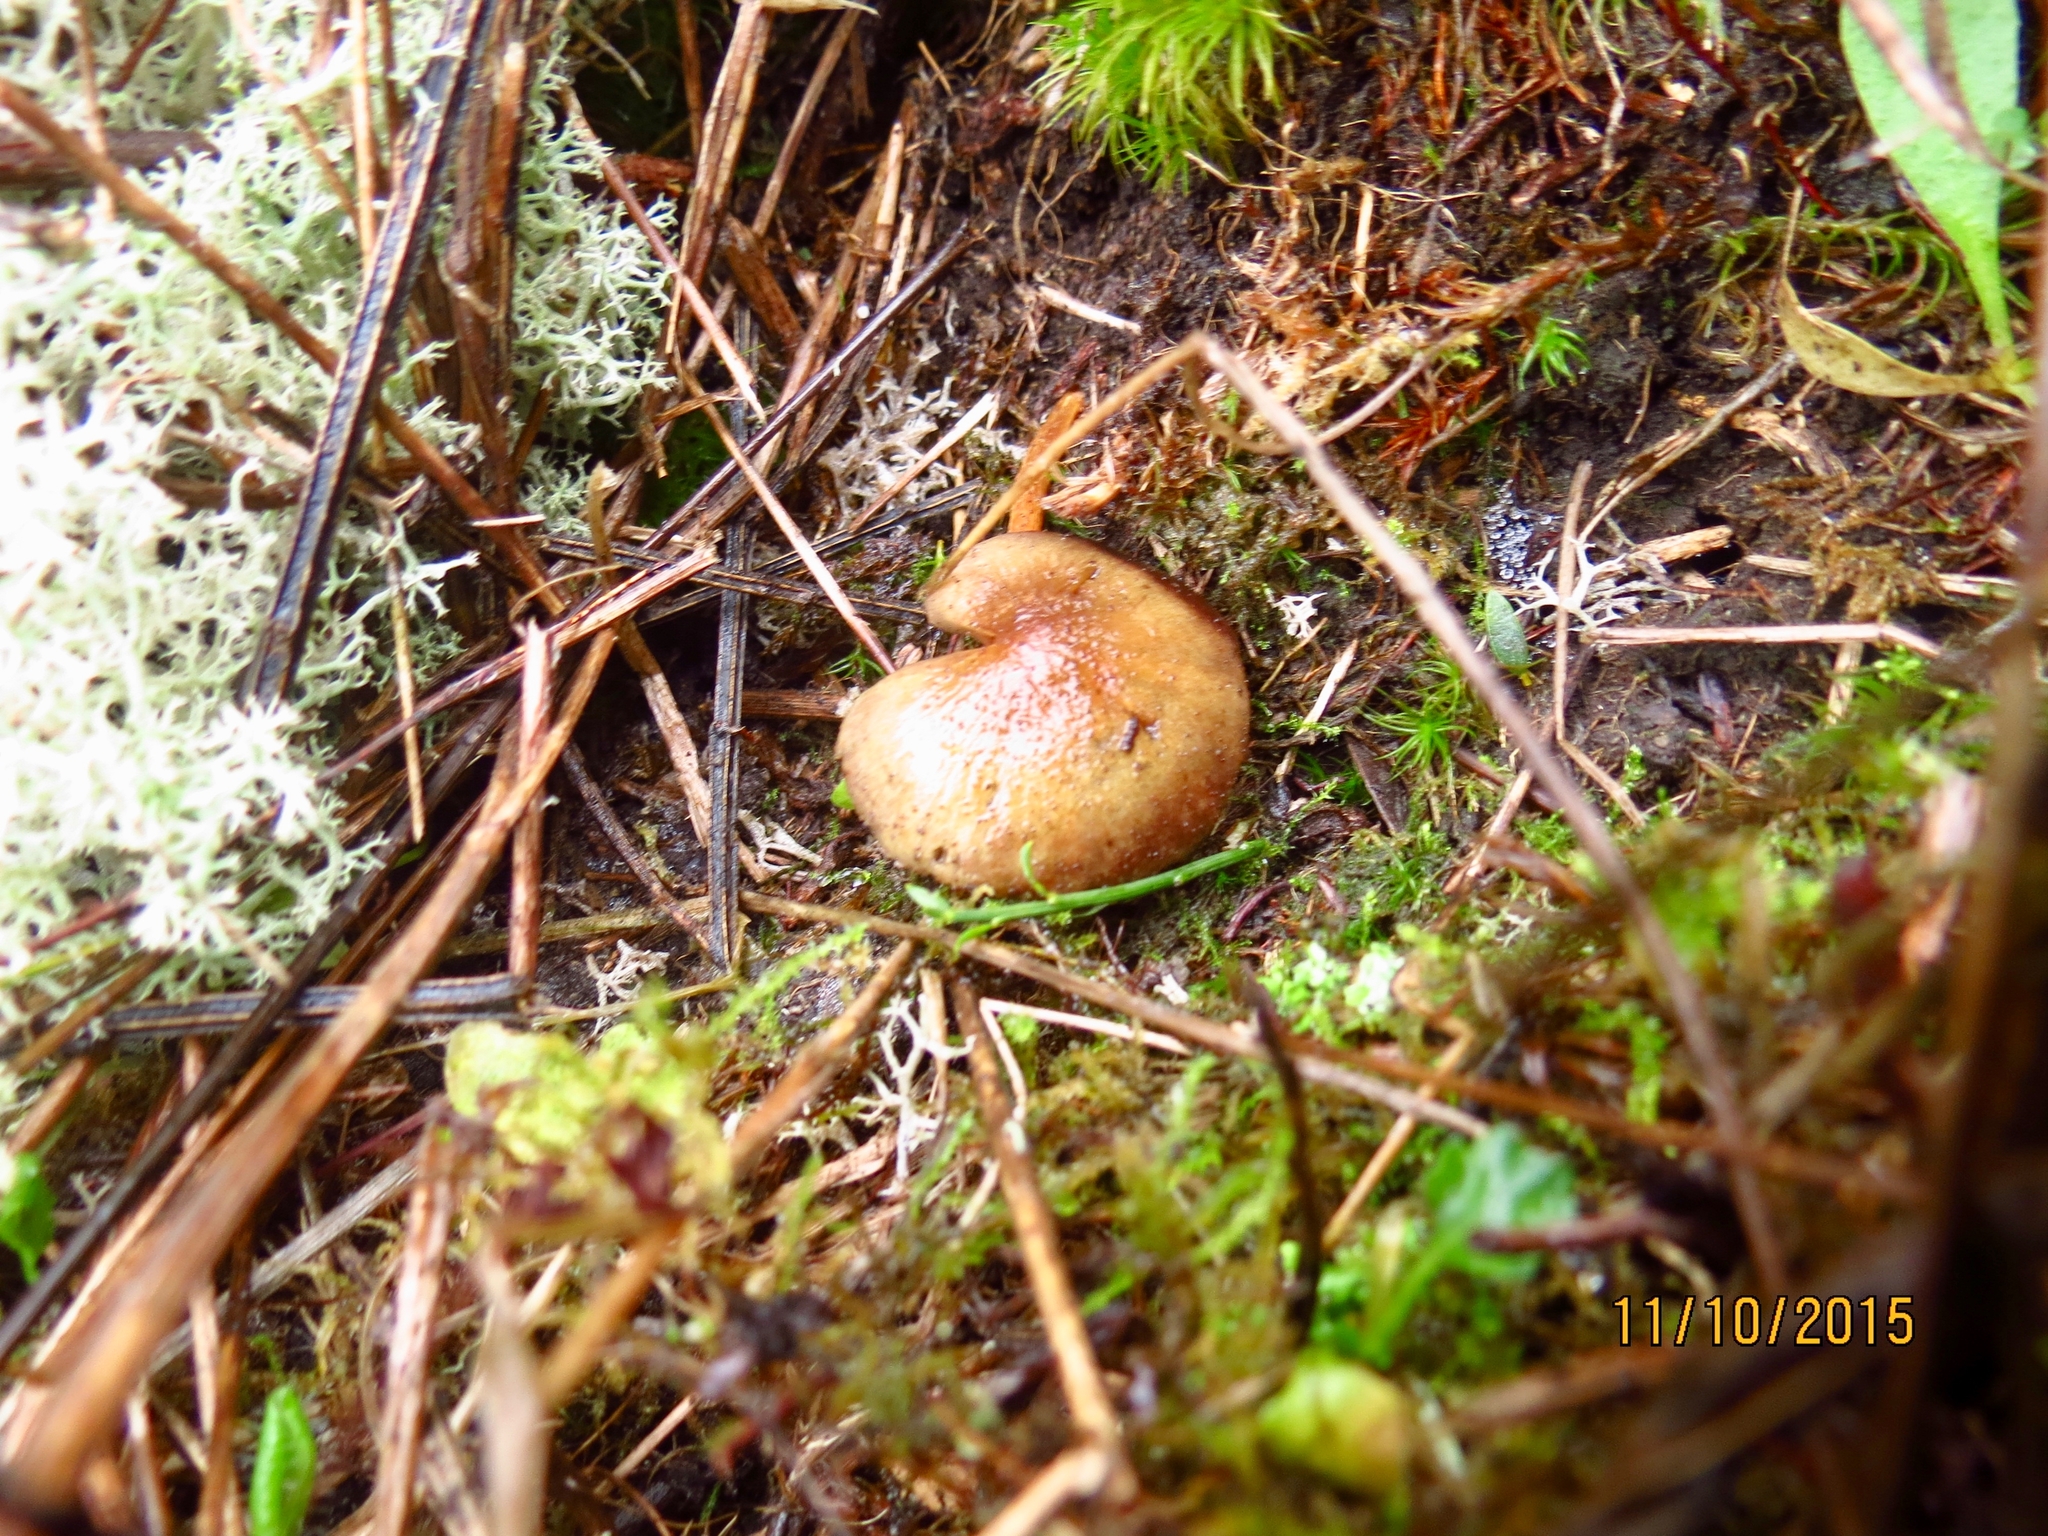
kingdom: Fungi
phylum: Basidiomycota
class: Agaricomycetes
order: Agaricales
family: Strophariaceae
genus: Hypholoma
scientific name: Hypholoma fasciculare
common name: Sulphur tuft
